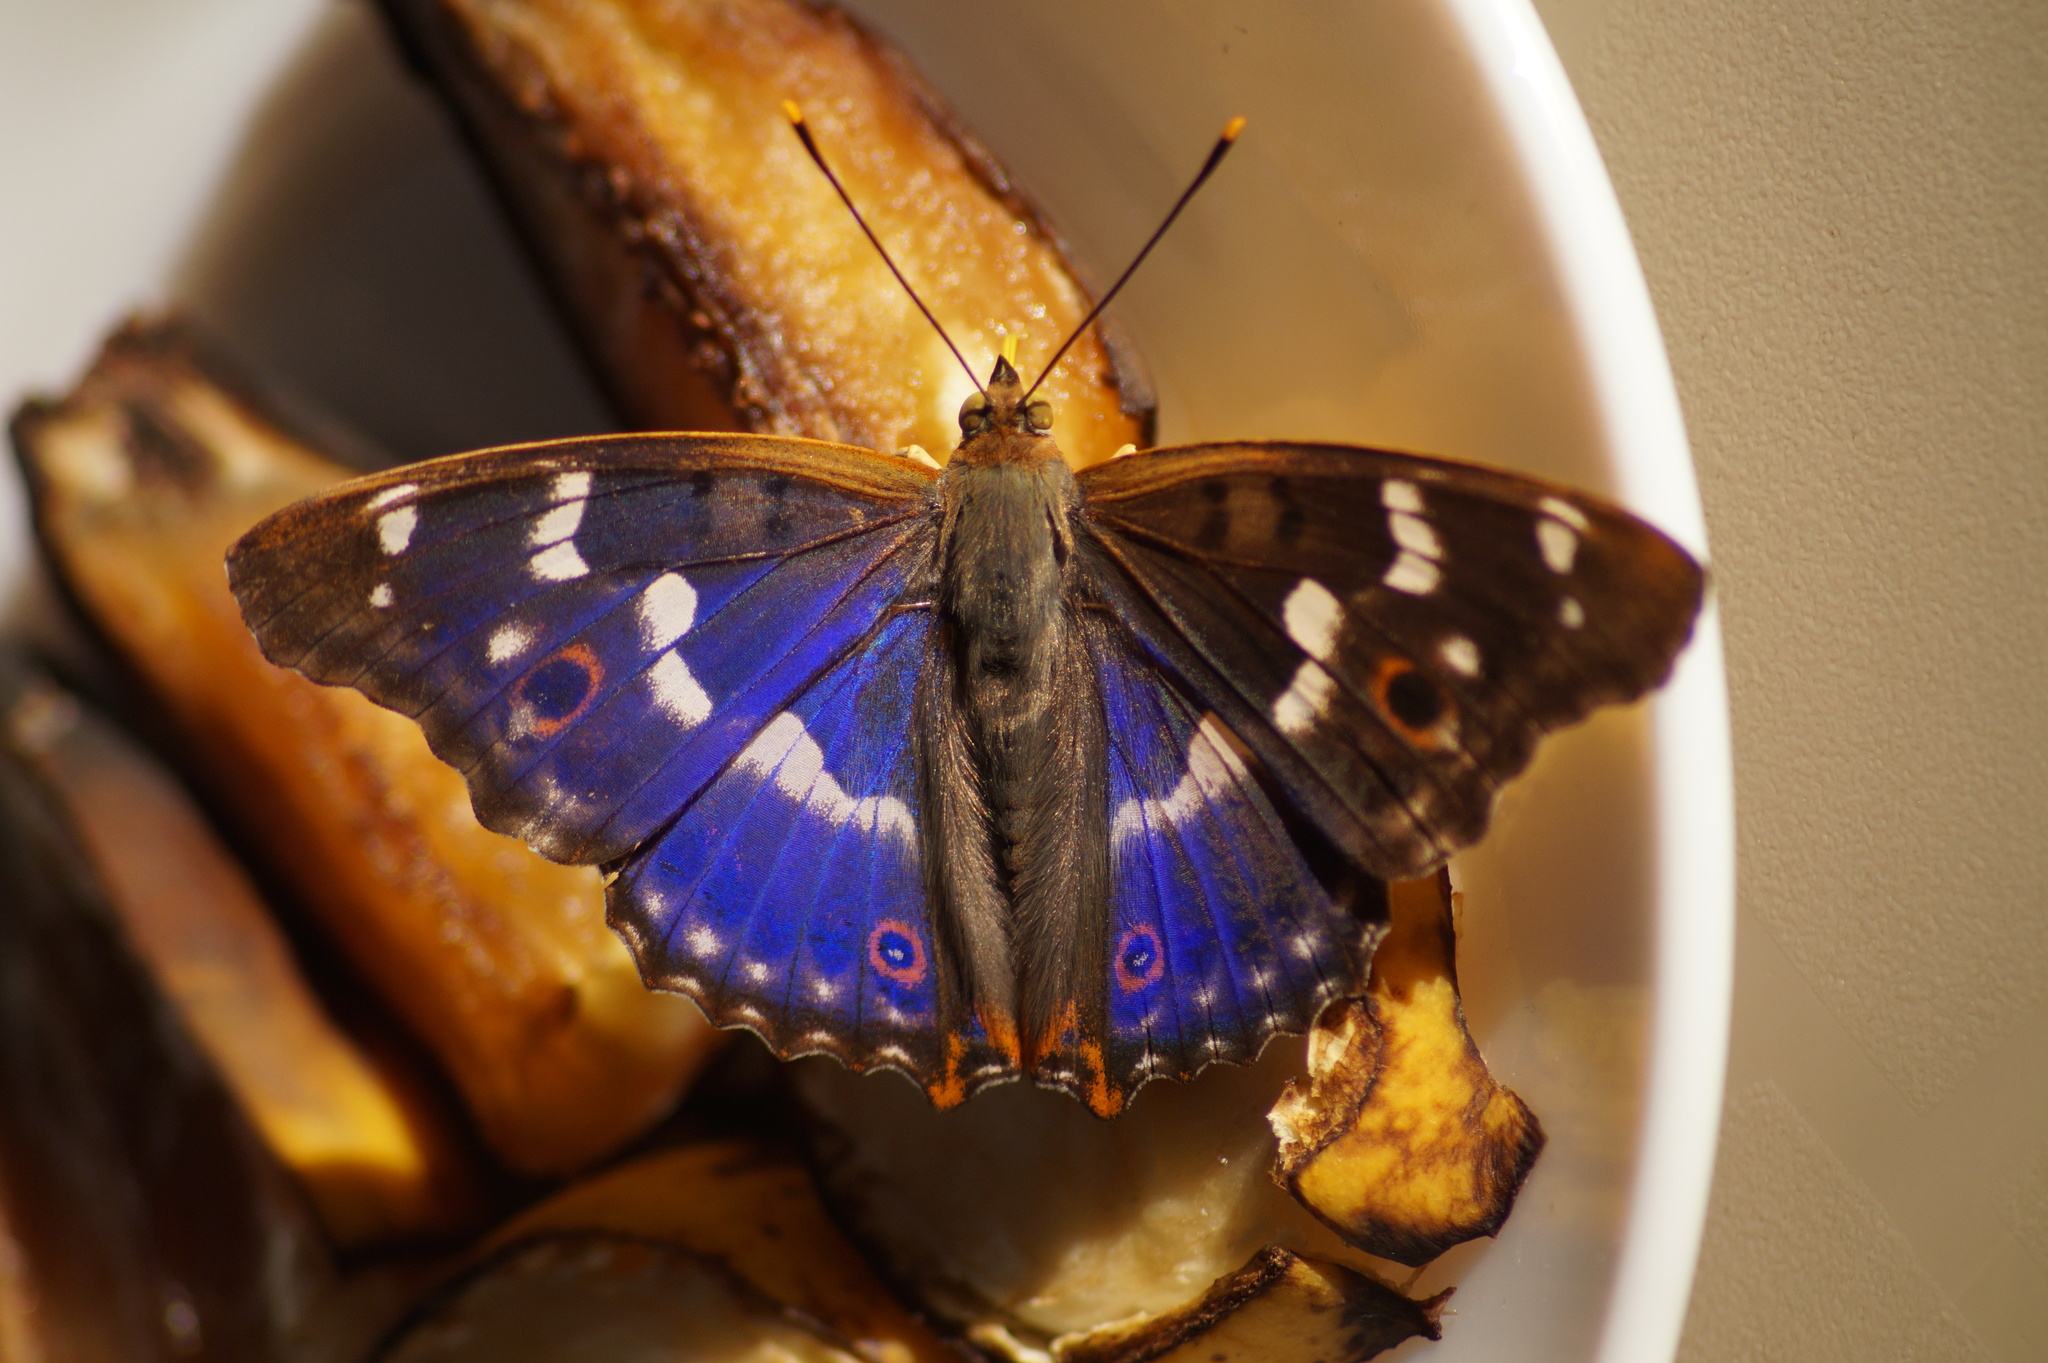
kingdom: Animalia
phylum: Arthropoda
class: Insecta
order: Lepidoptera
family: Nymphalidae
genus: Apatura
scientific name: Apatura ilia
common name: Lesser purple emperor
